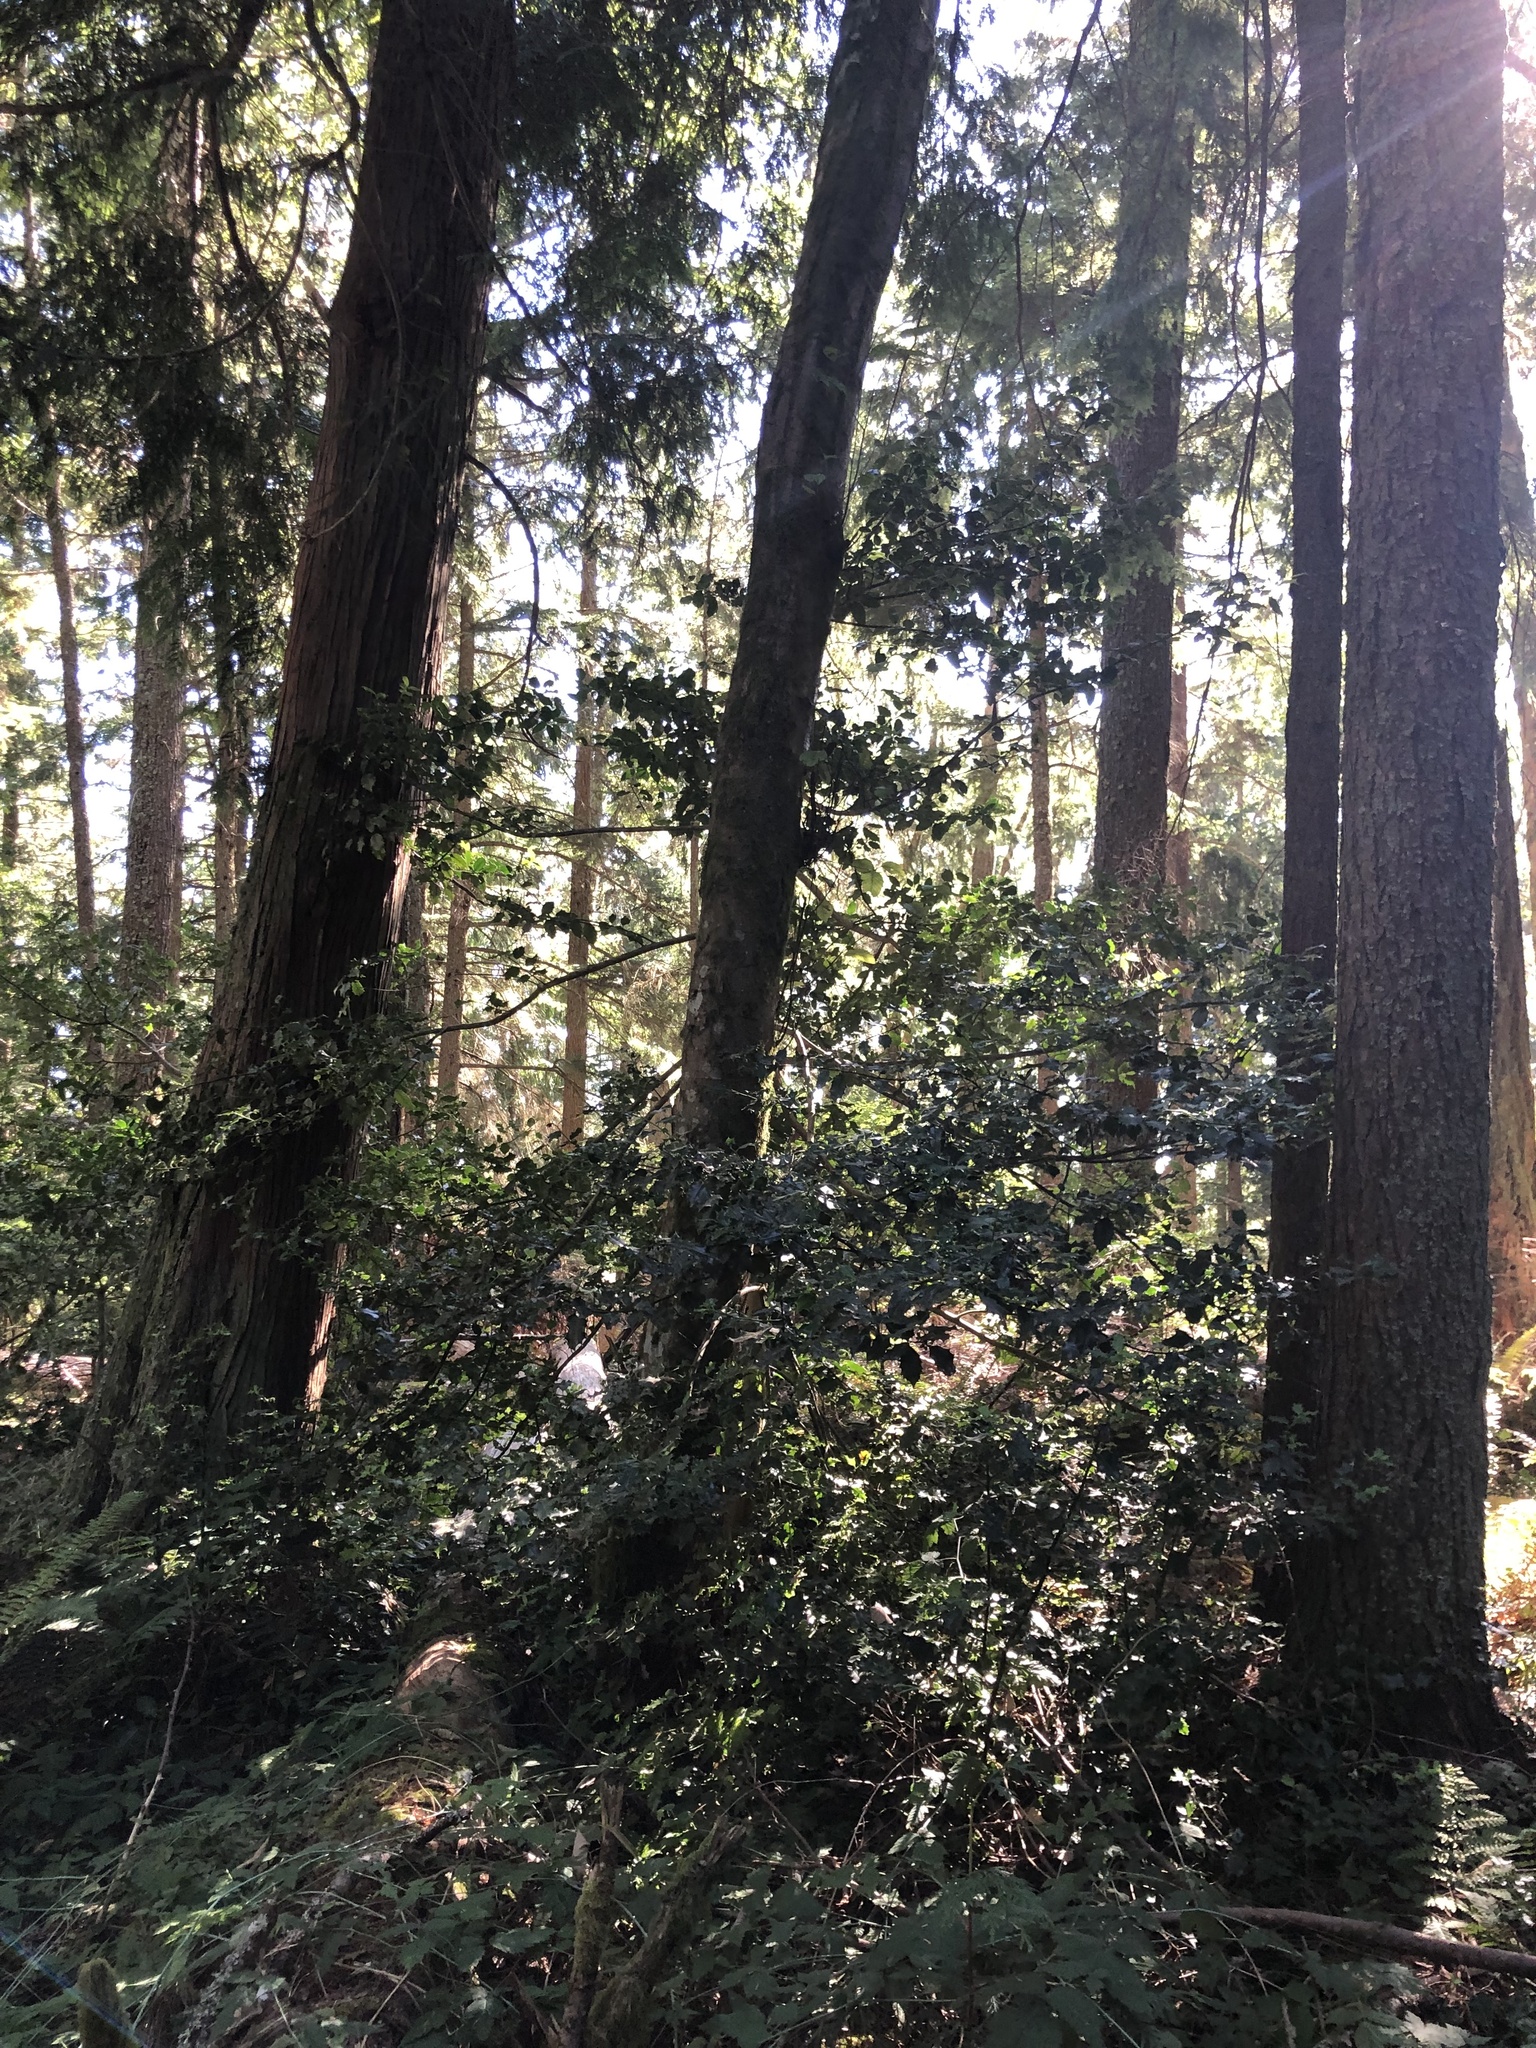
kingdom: Plantae
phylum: Tracheophyta
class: Magnoliopsida
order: Aquifoliales
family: Aquifoliaceae
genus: Ilex
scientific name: Ilex aquifolium
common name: English holly
